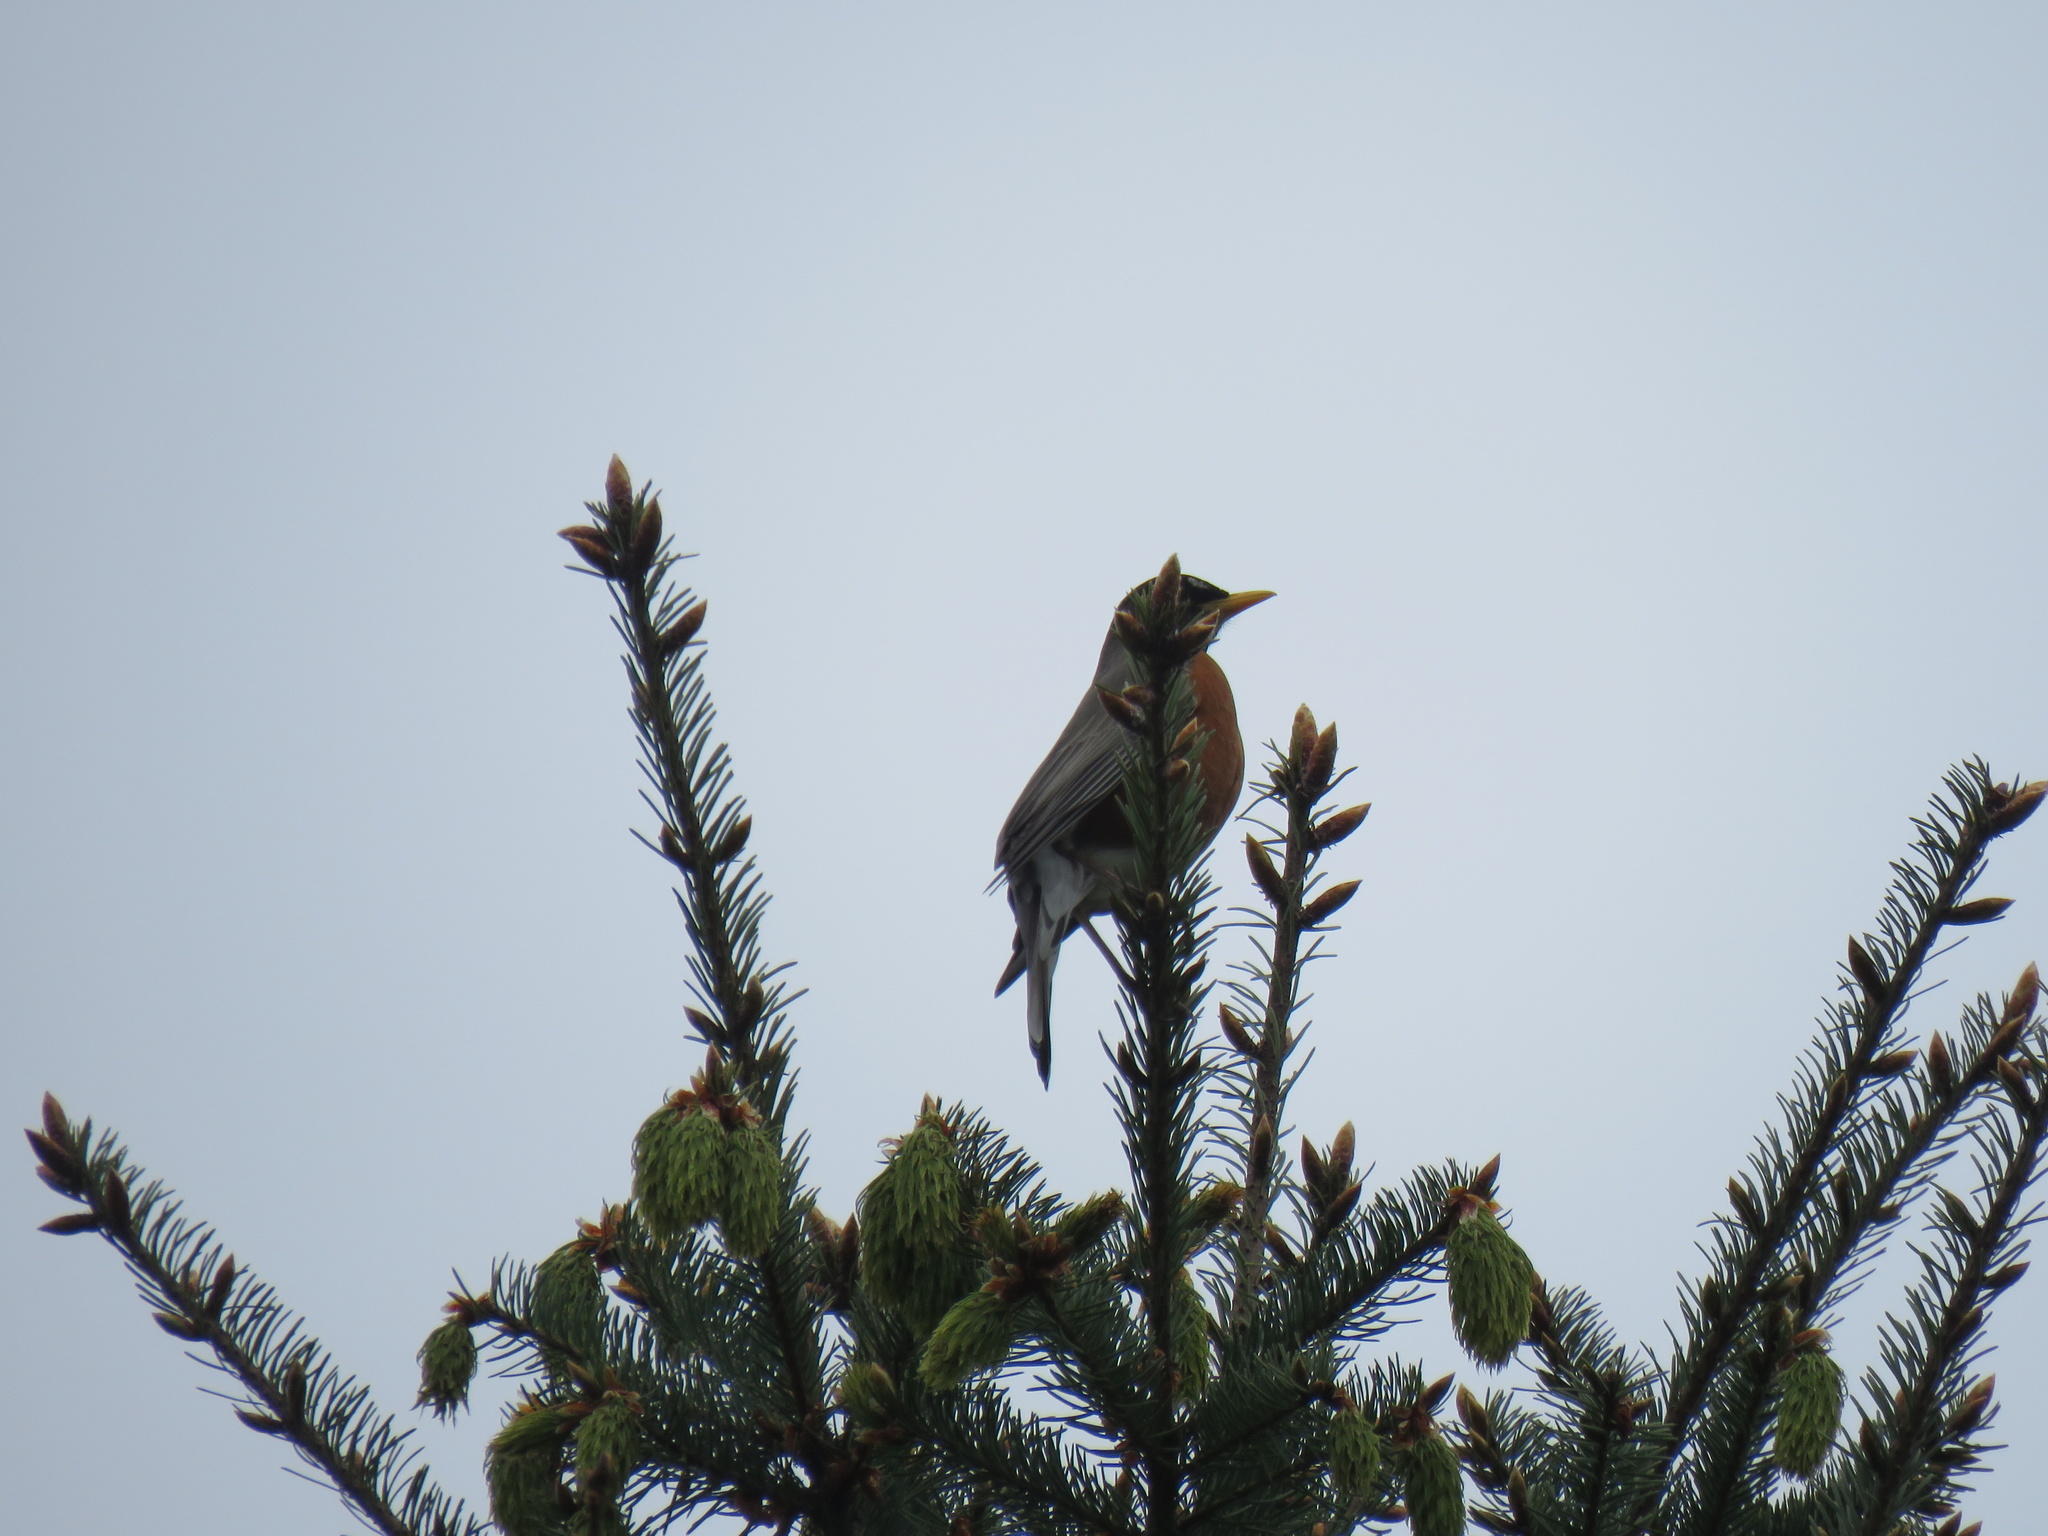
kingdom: Animalia
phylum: Chordata
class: Aves
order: Passeriformes
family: Turdidae
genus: Turdus
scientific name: Turdus migratorius
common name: American robin
